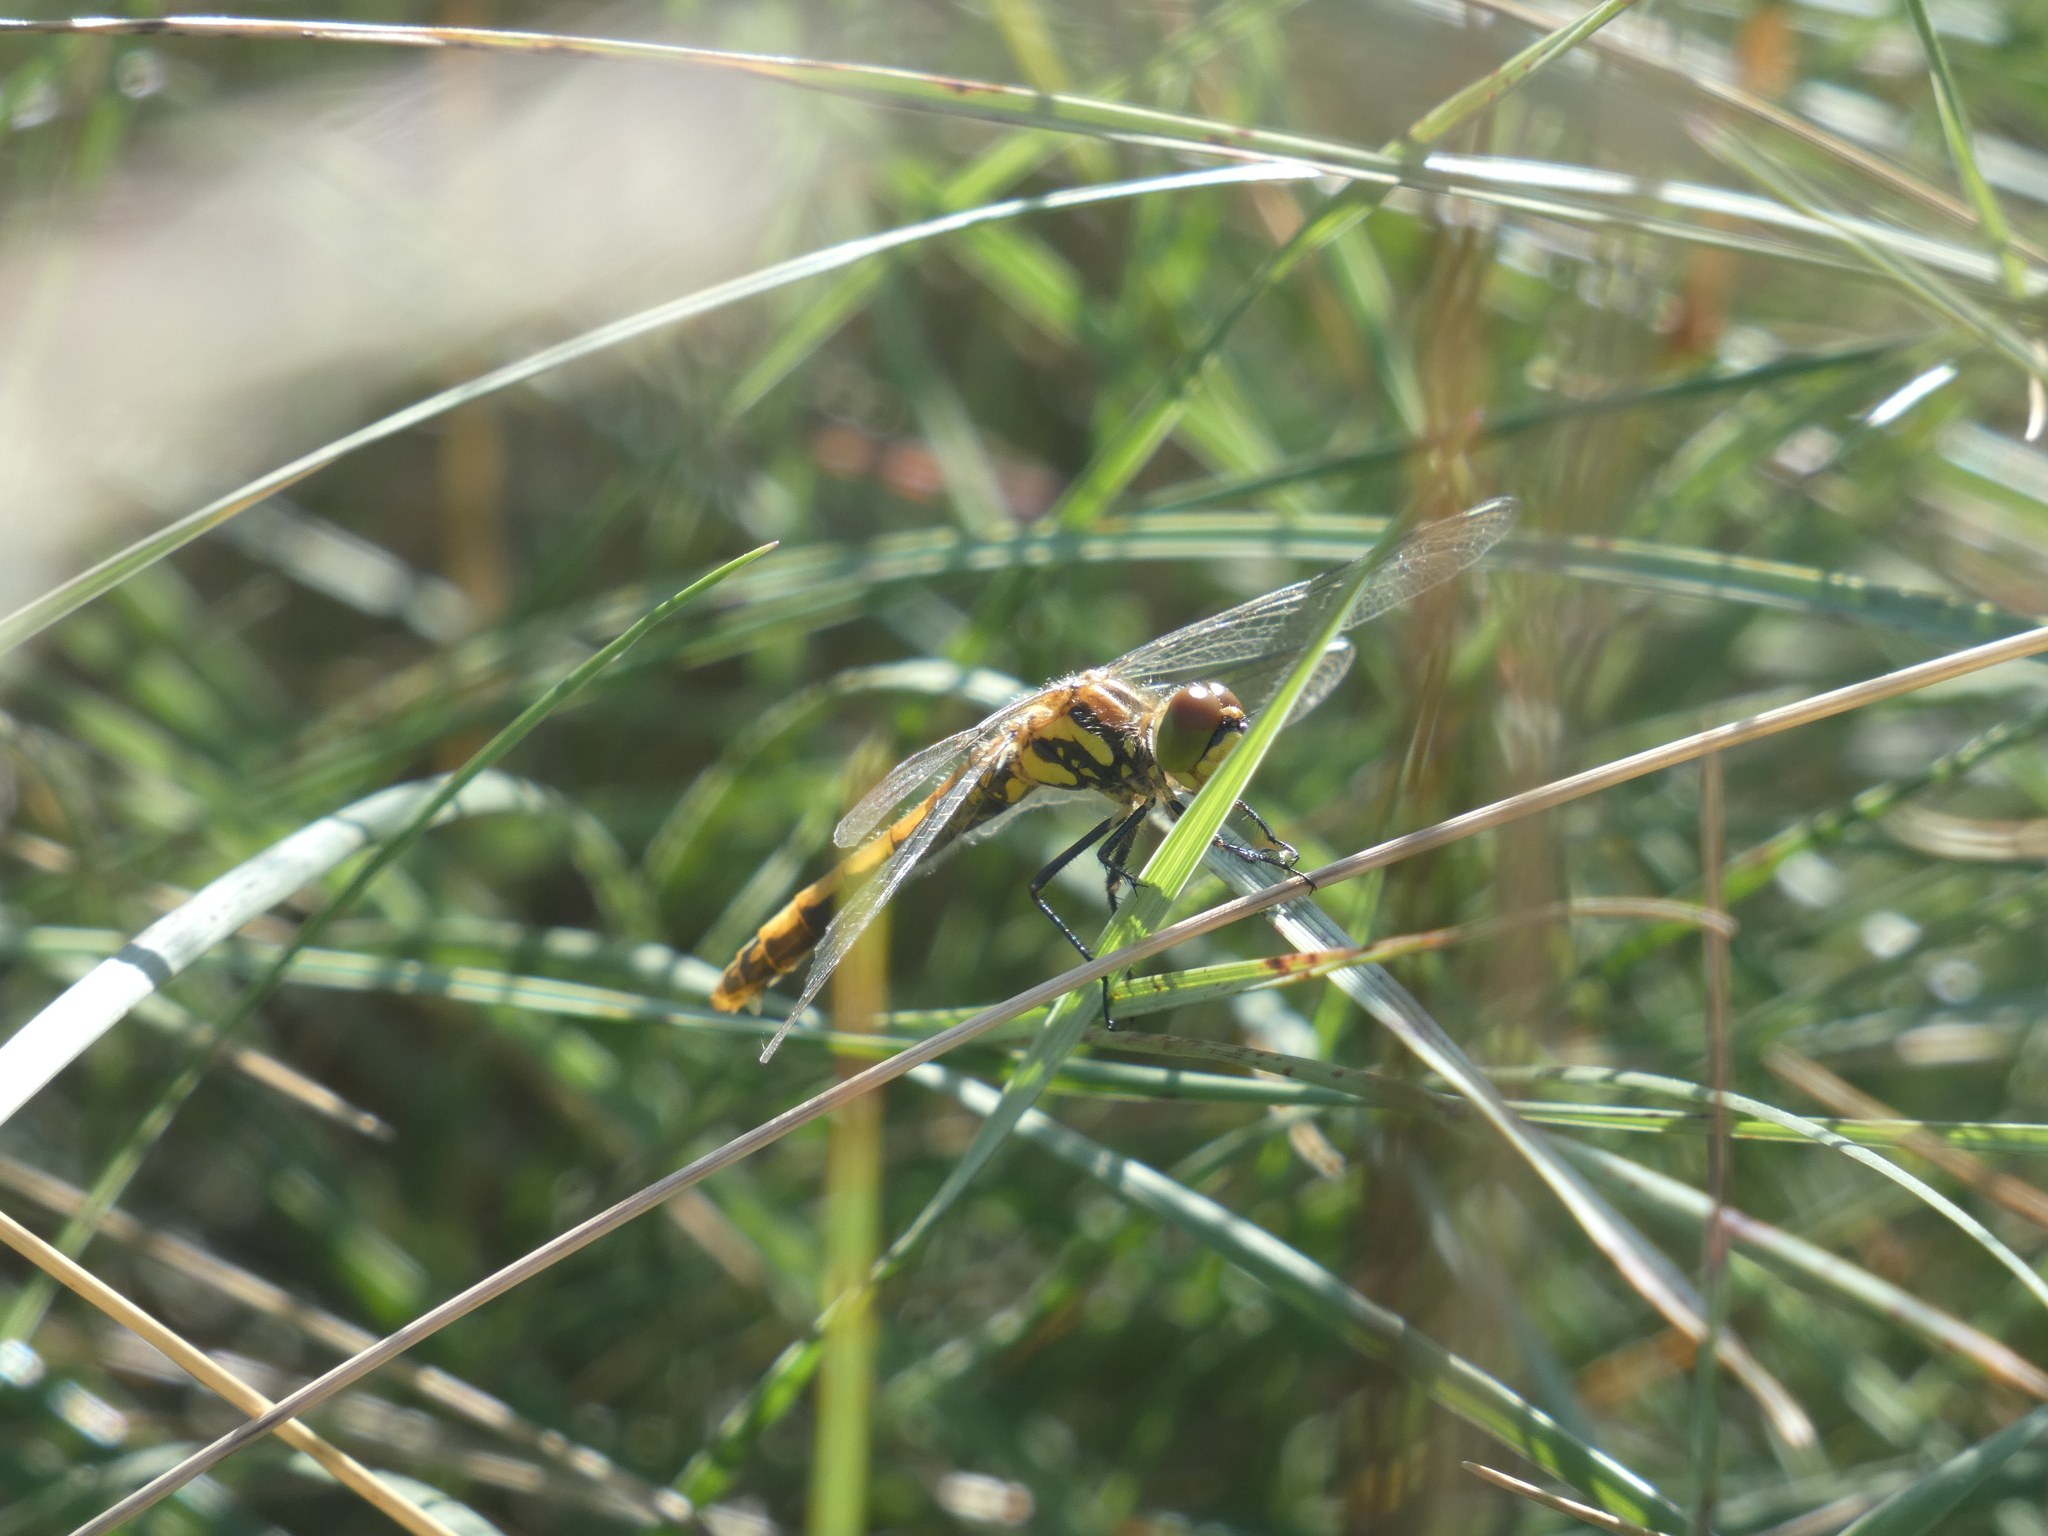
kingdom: Animalia
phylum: Arthropoda
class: Insecta
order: Odonata
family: Libellulidae
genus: Sympetrum
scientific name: Sympetrum danae
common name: Black darter
